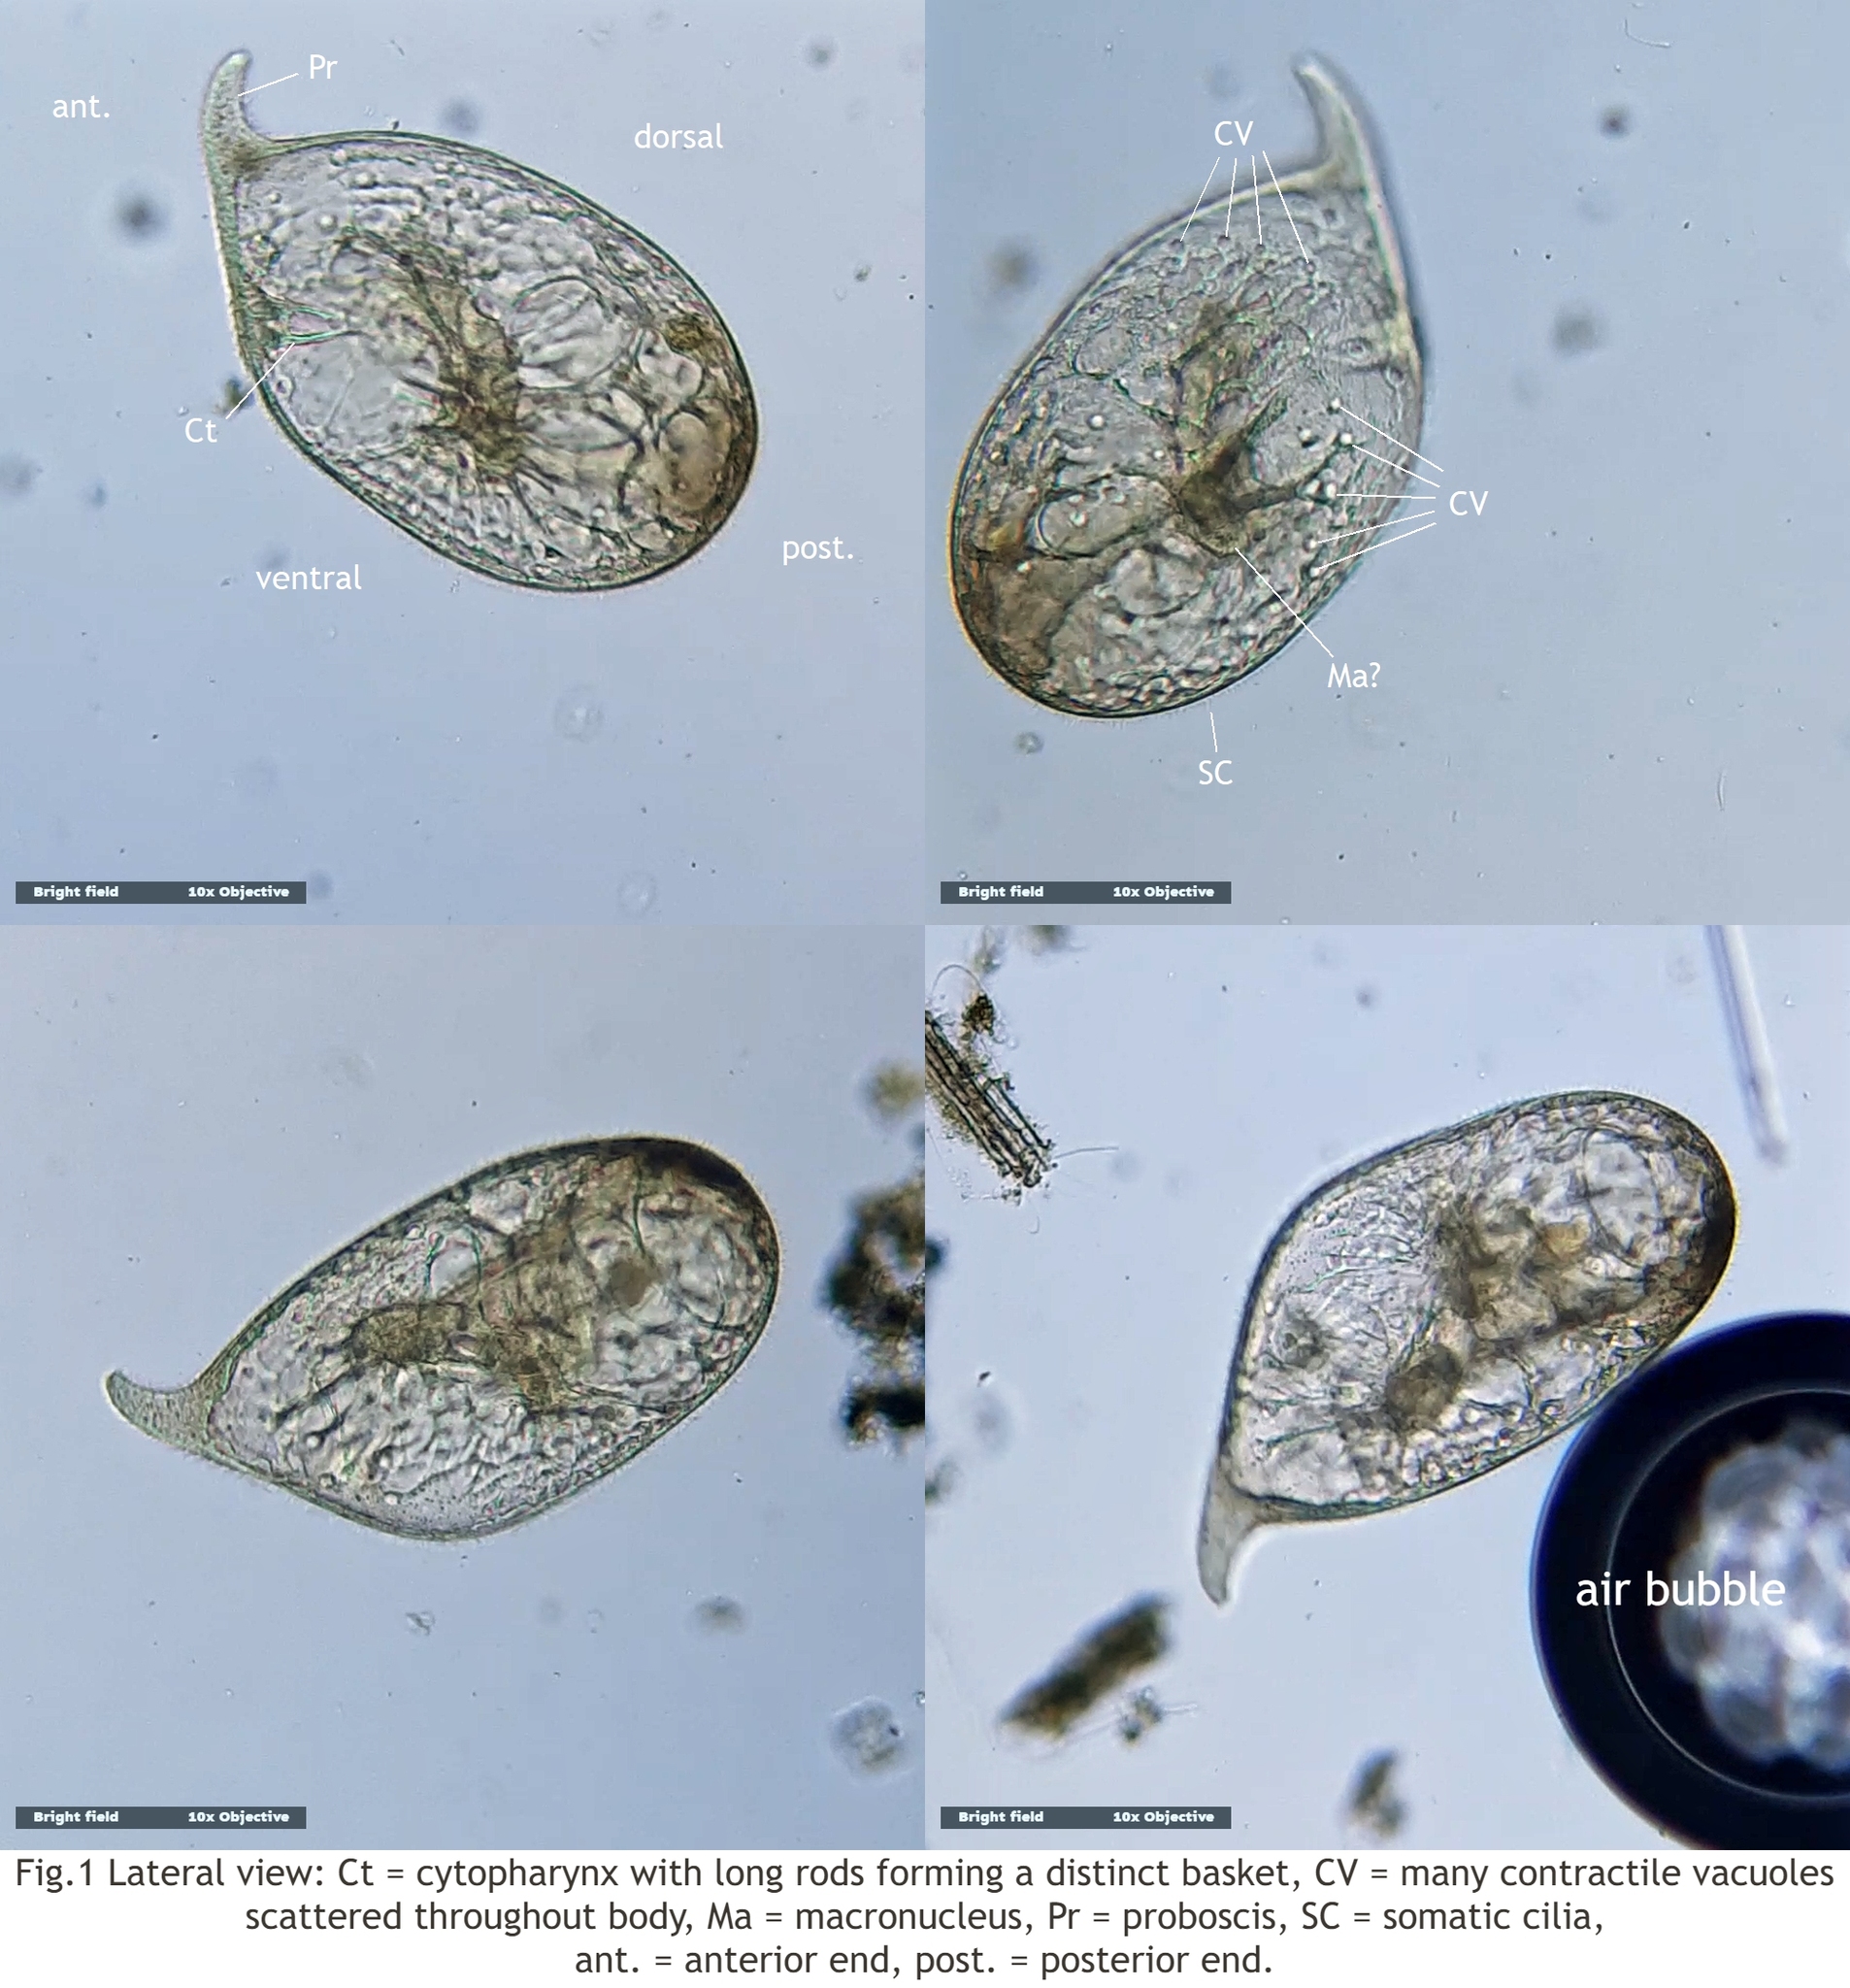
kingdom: Chromista
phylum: Ciliophora
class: Litostomatea
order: Dileptida
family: Dileptidae
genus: Trachelius
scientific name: Trachelius ovum
